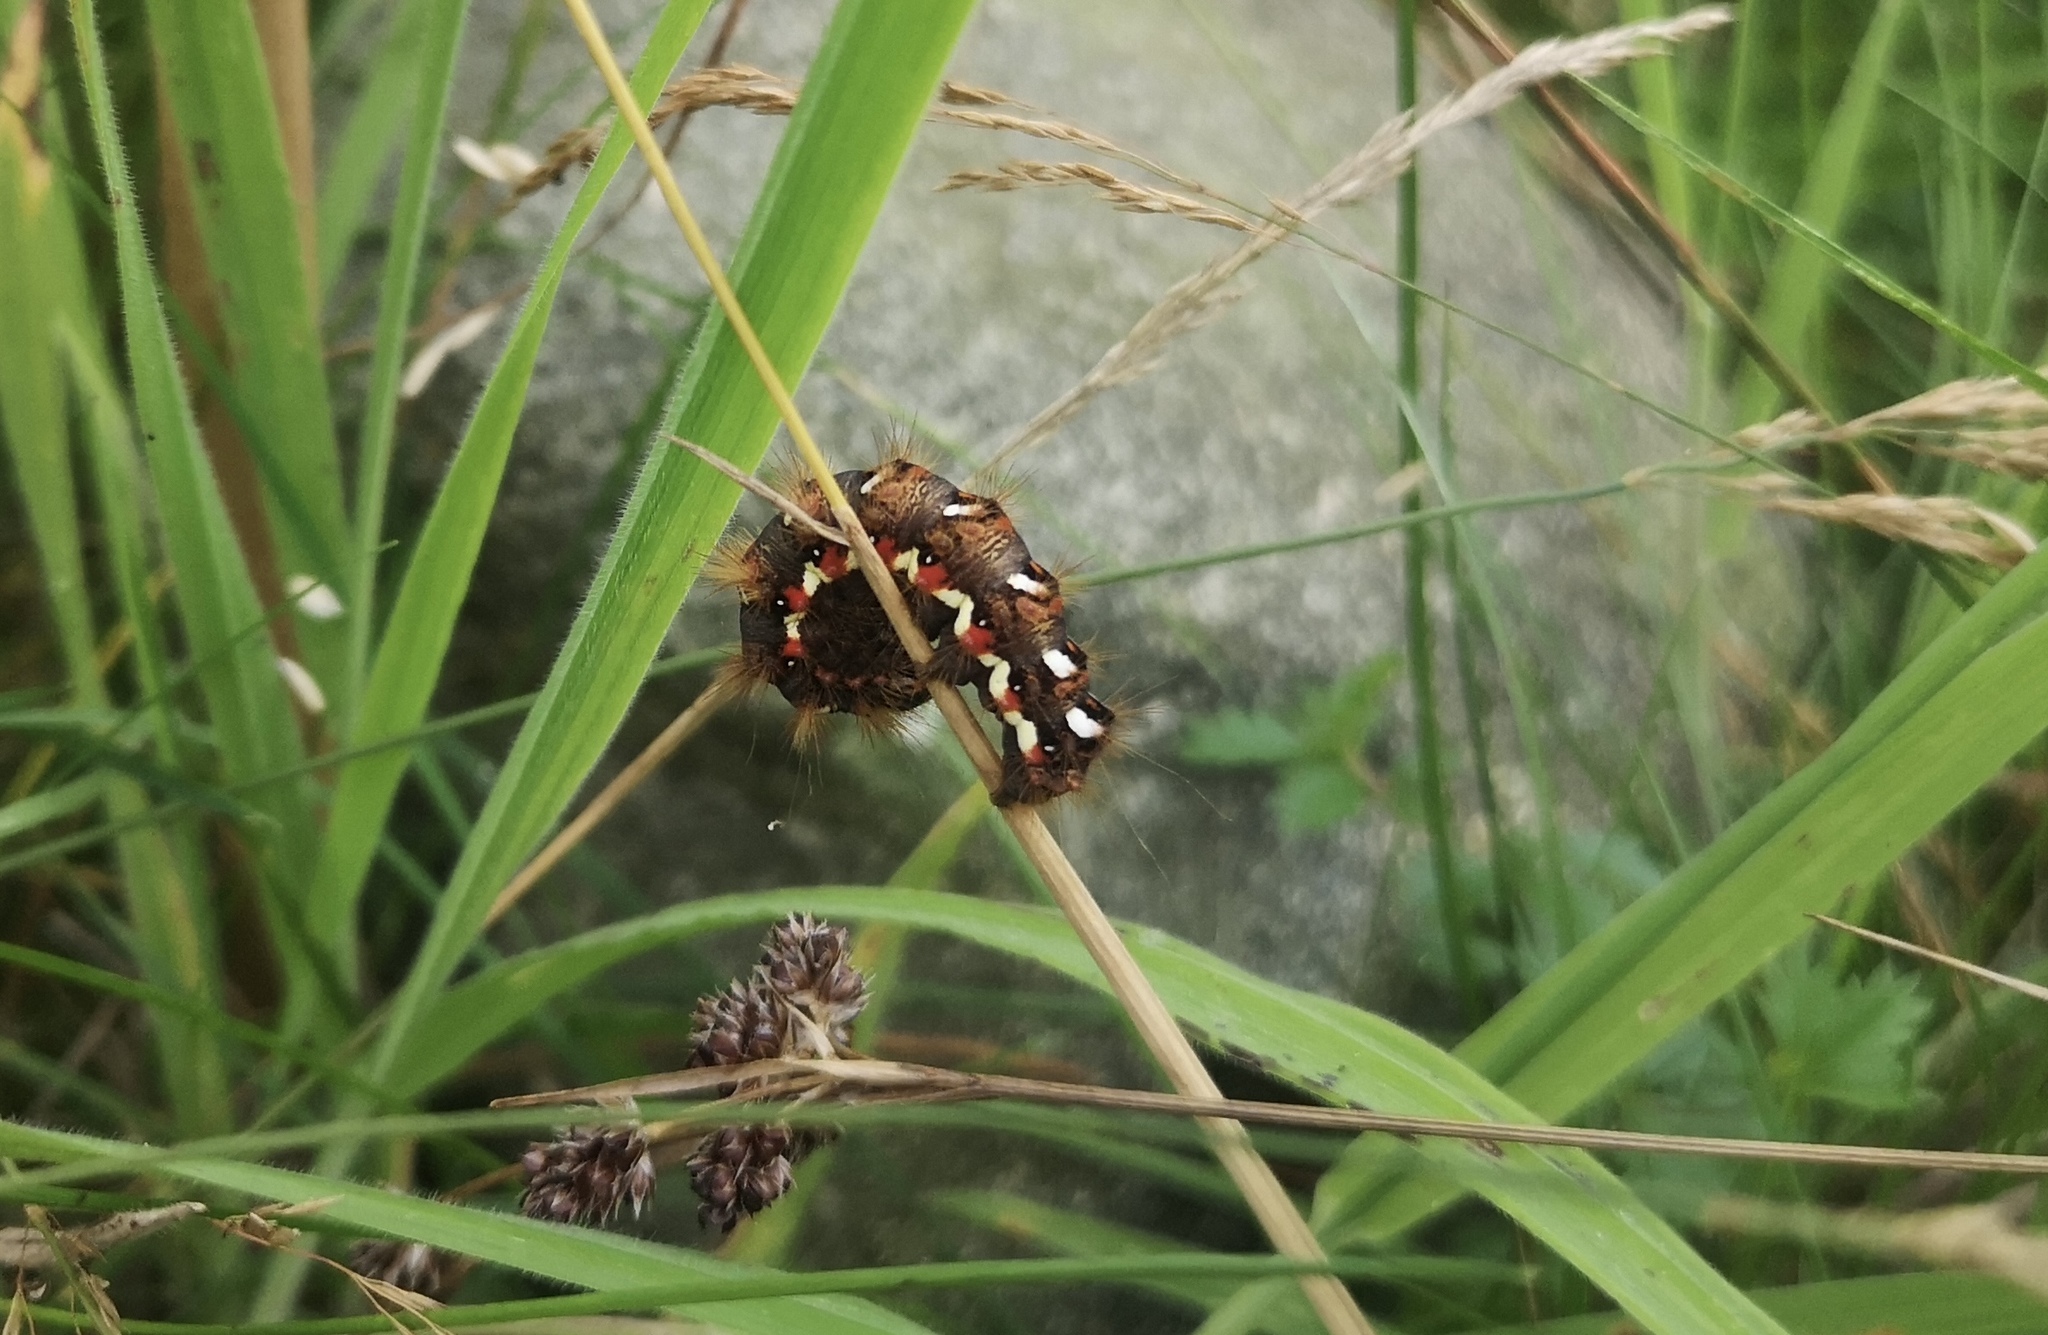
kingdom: Animalia
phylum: Arthropoda
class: Insecta
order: Lepidoptera
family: Noctuidae
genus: Acronicta
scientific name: Acronicta rumicis
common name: Knot grass
